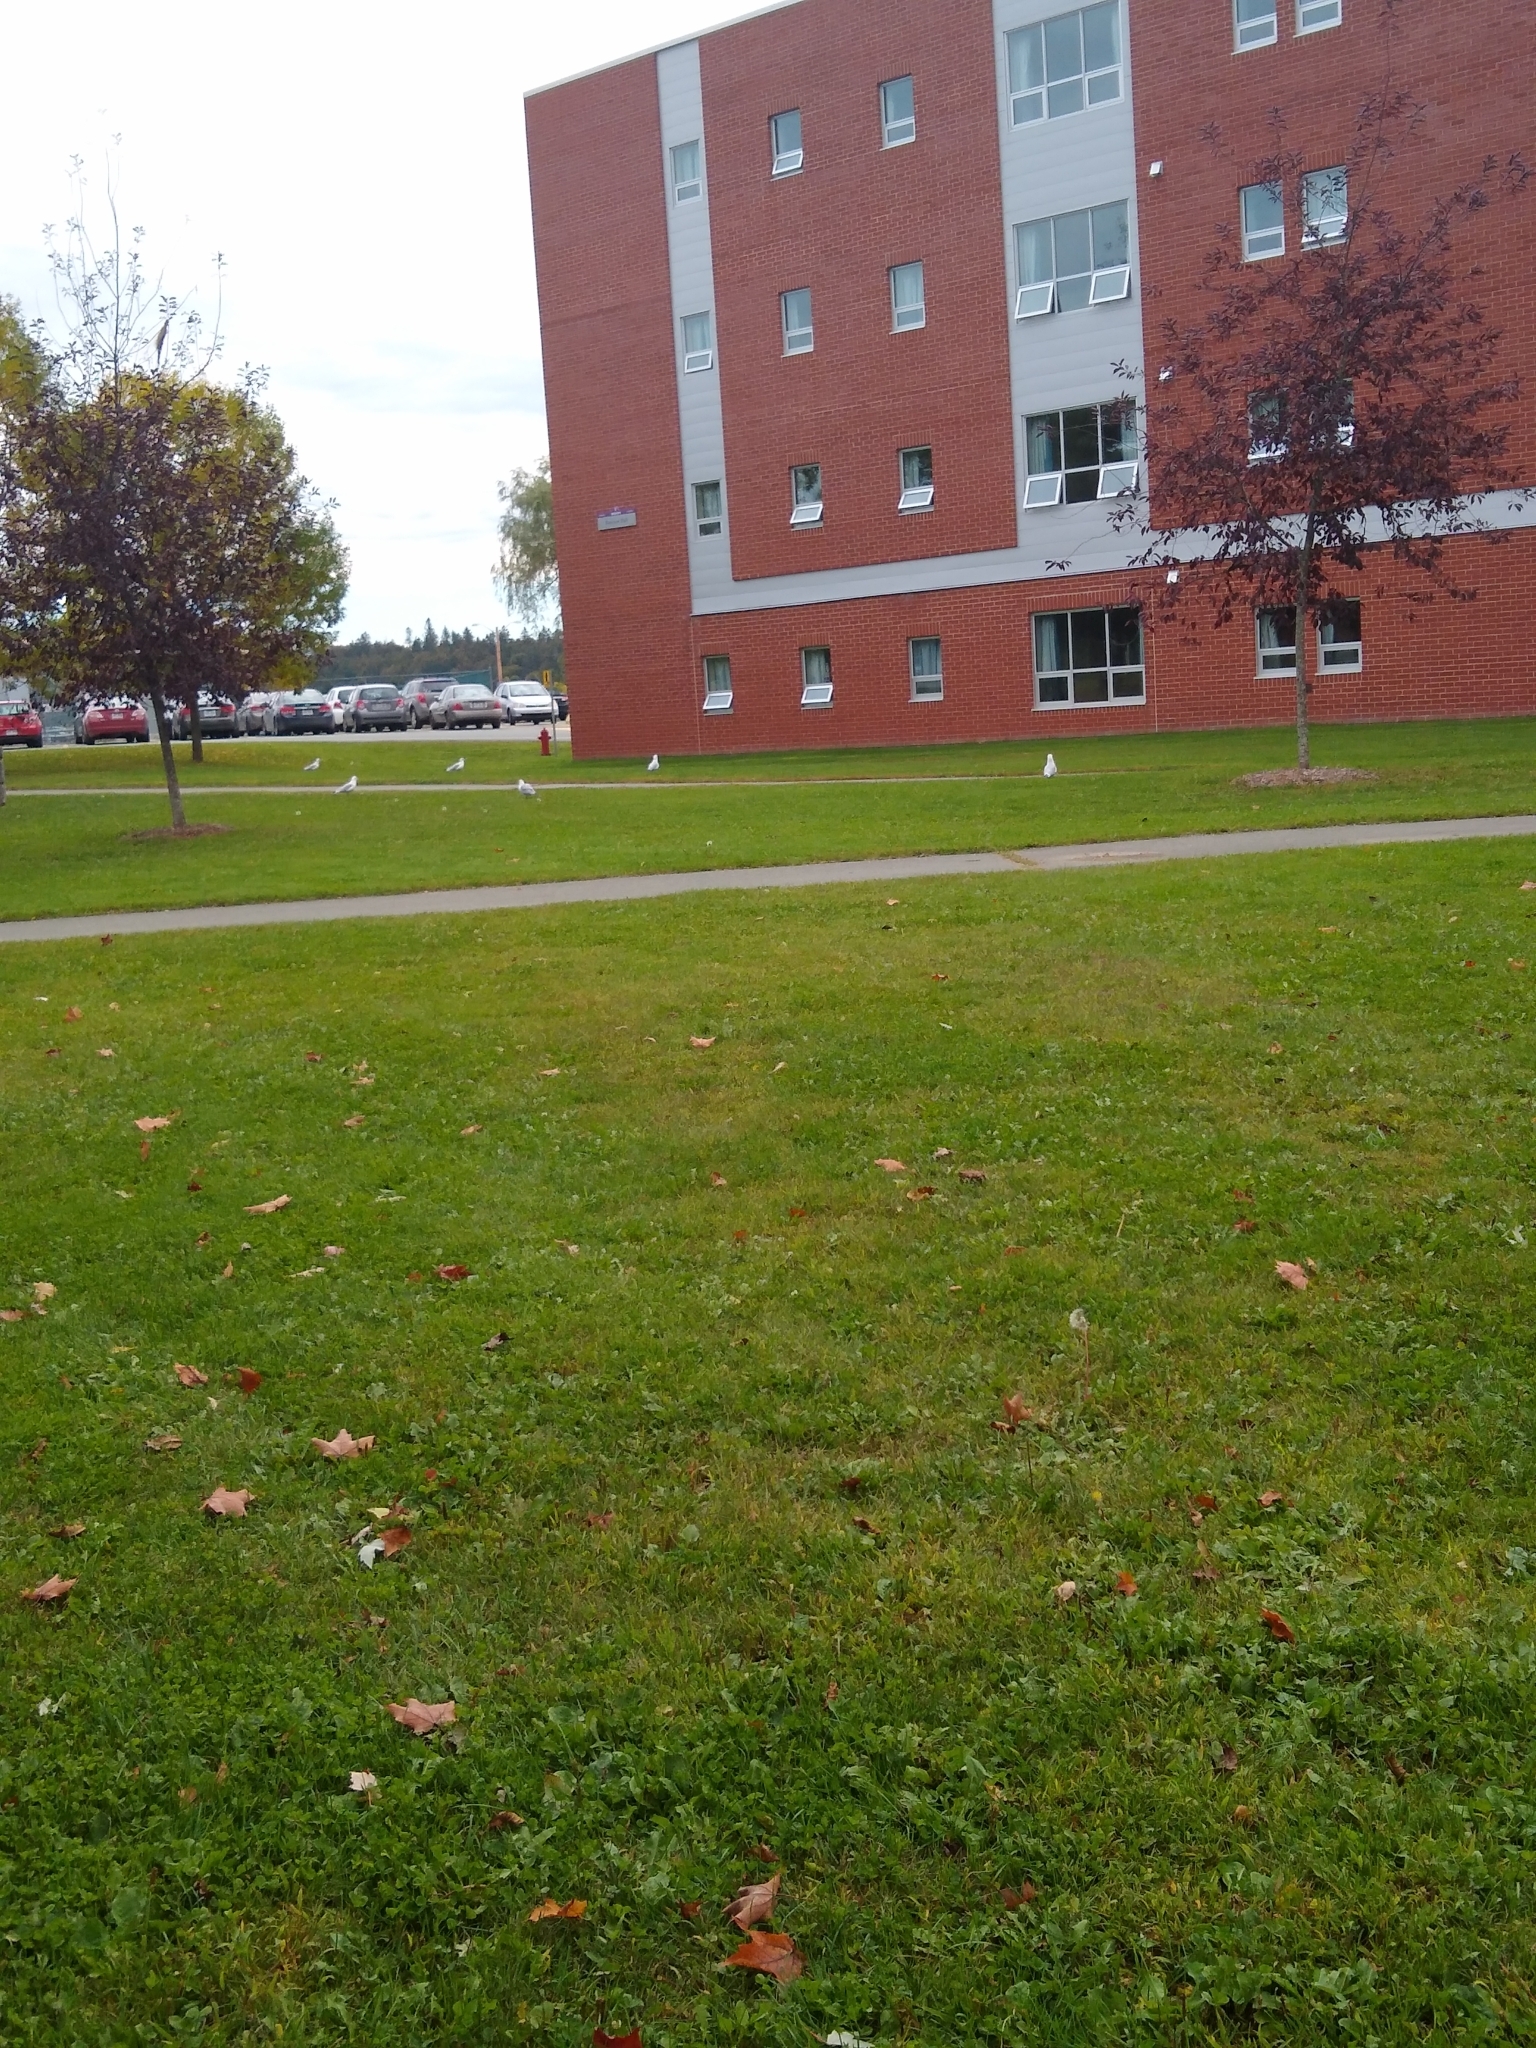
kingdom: Animalia
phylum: Chordata
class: Aves
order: Charadriiformes
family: Laridae
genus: Larus
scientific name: Larus delawarensis
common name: Ring-billed gull
